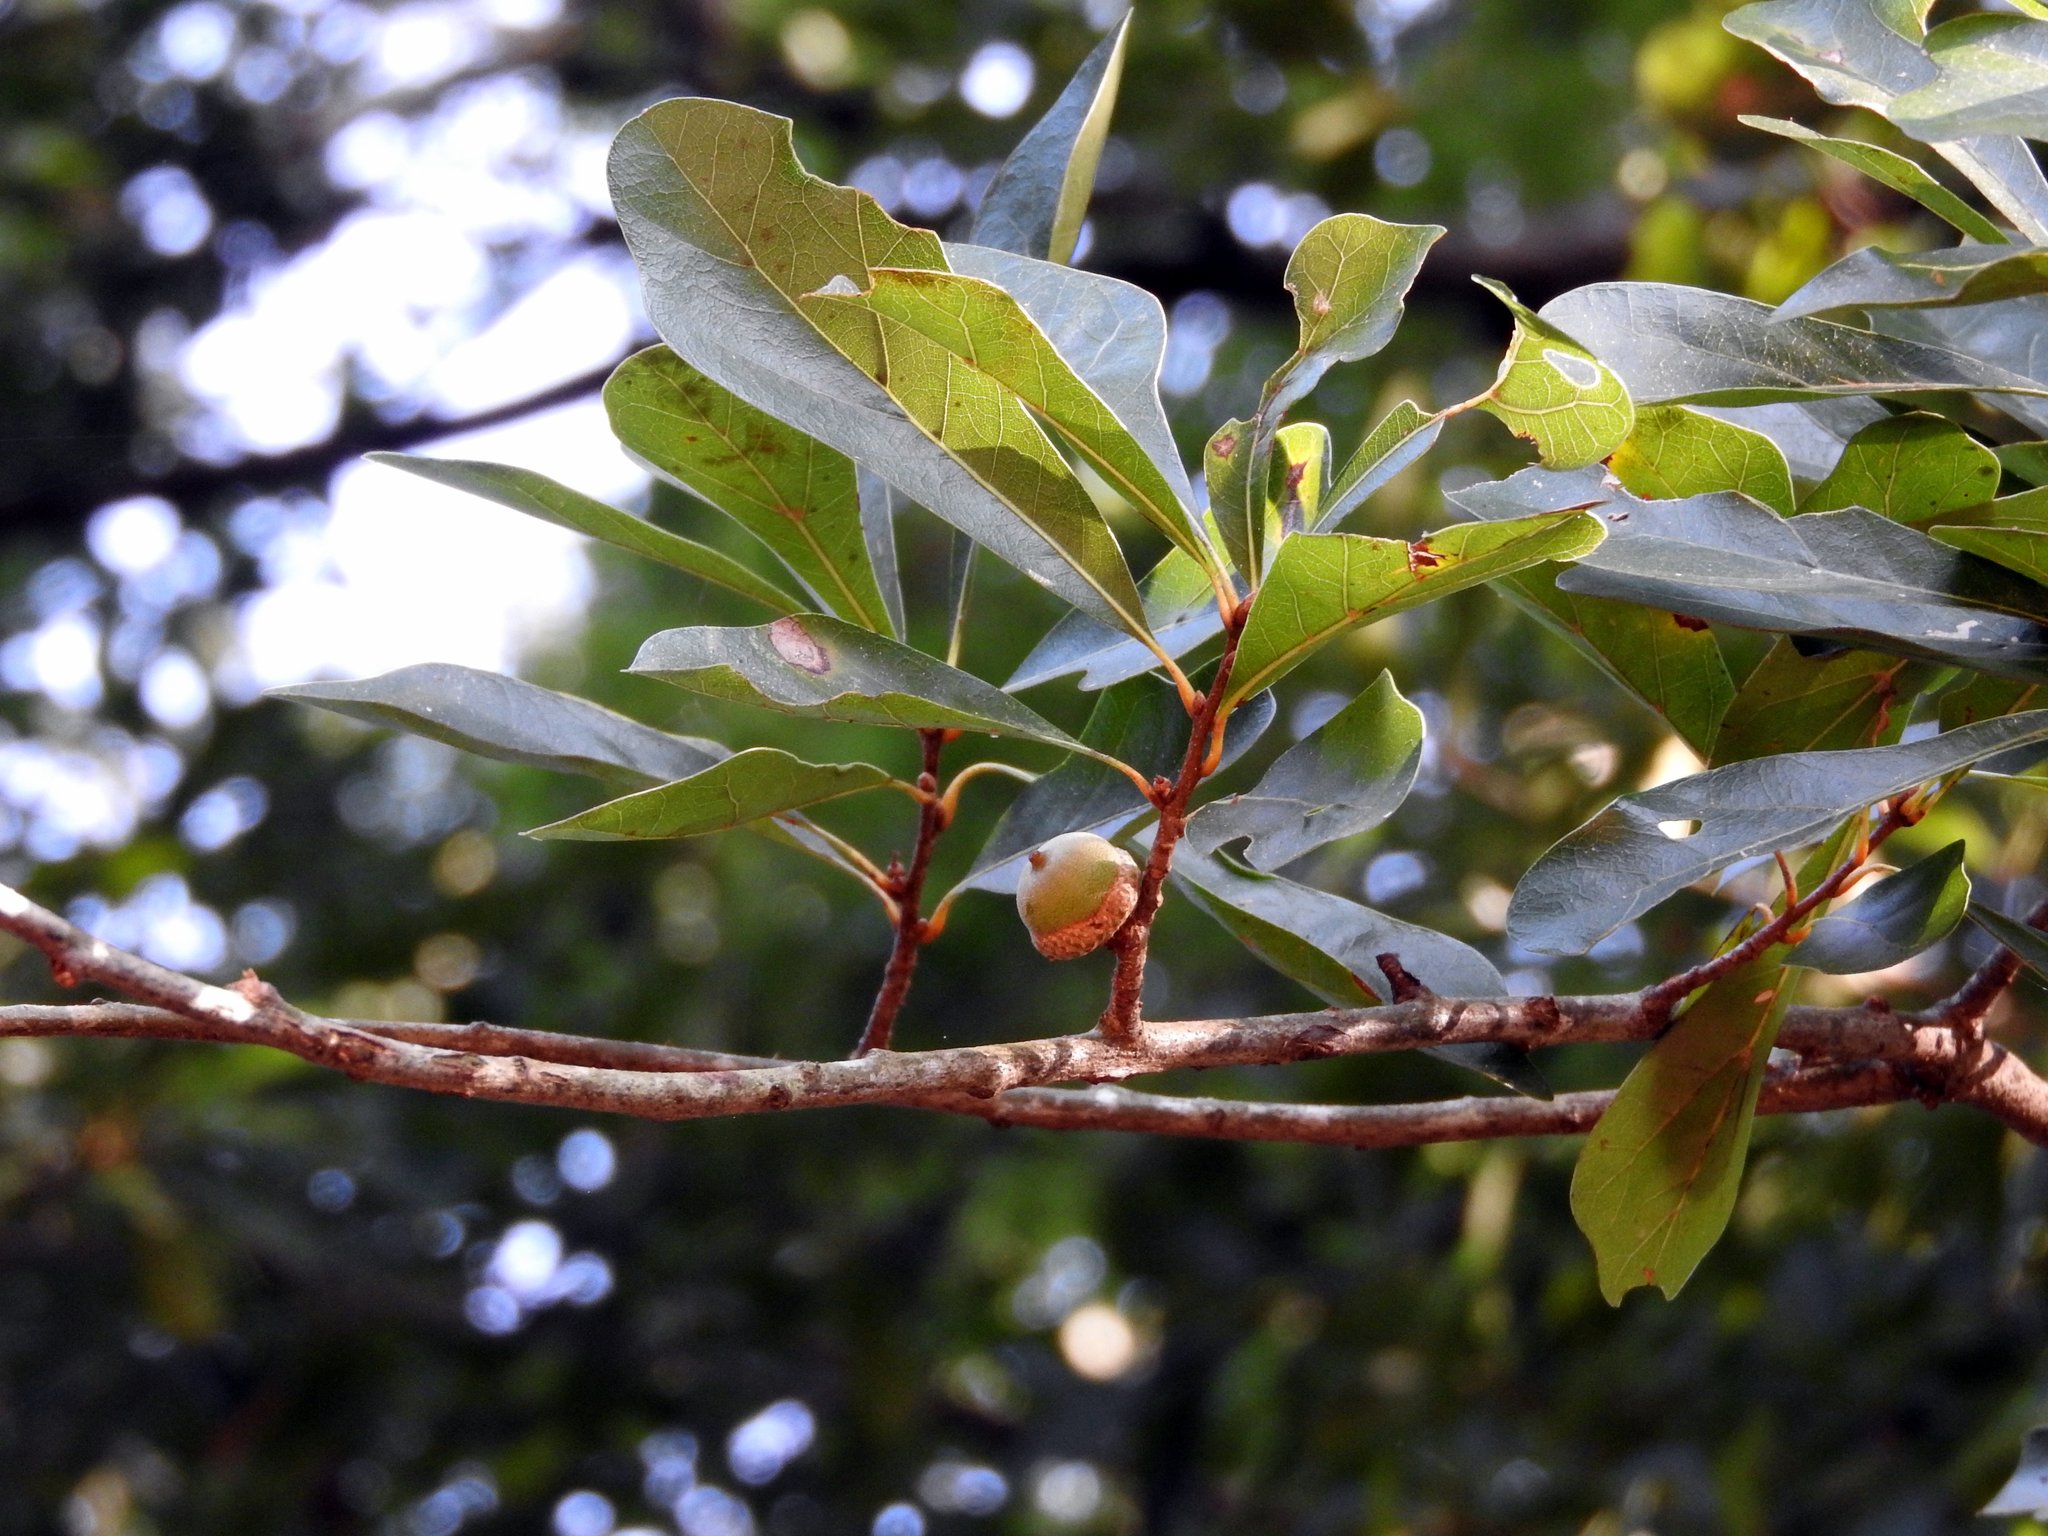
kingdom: Plantae
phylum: Tracheophyta
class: Magnoliopsida
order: Fagales
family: Fagaceae
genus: Quercus
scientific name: Quercus nigra
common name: Water oak
